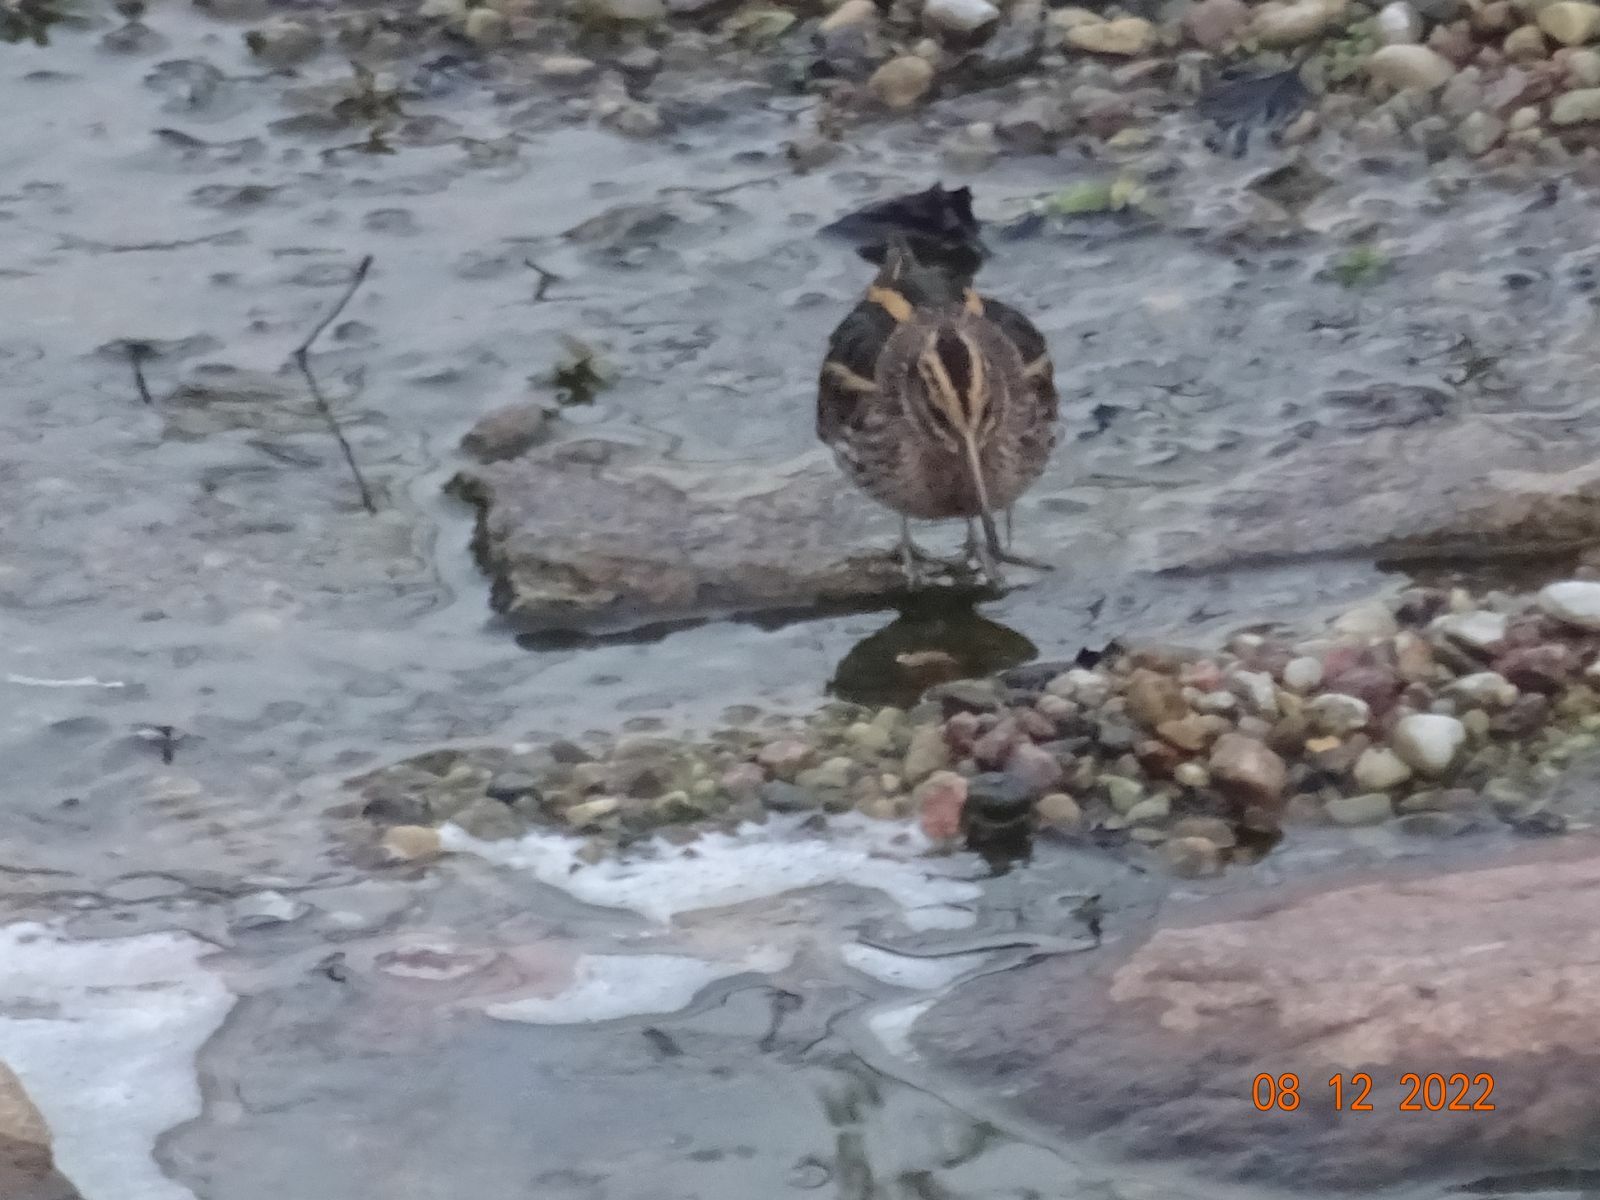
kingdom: Animalia
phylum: Chordata
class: Aves
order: Charadriiformes
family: Scolopacidae
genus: Lymnocryptes
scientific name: Lymnocryptes minimus
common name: Jack snipe
